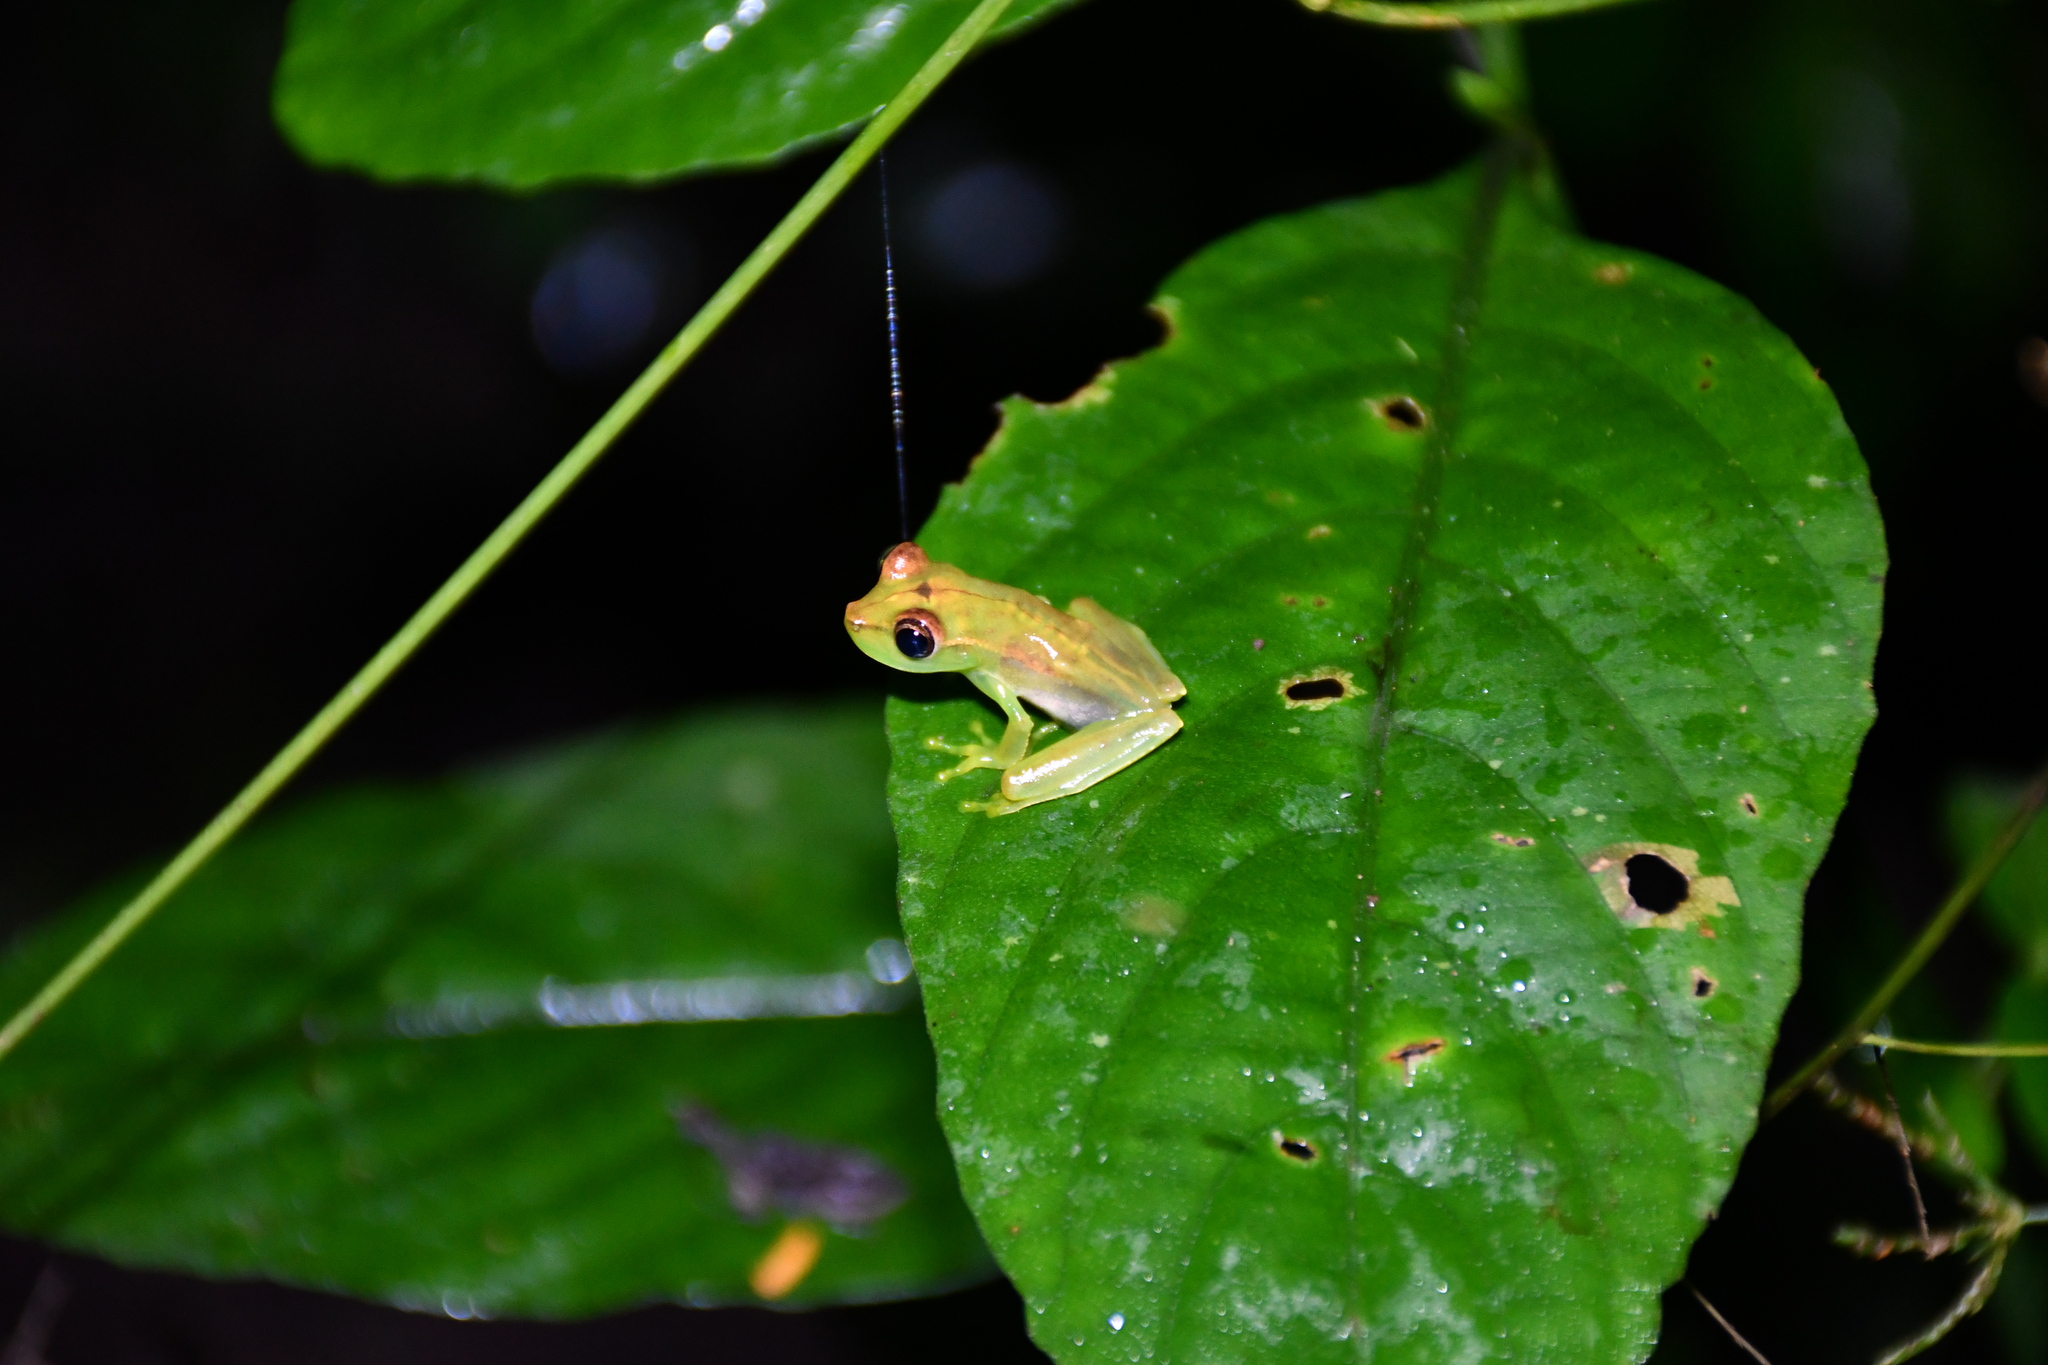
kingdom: Animalia
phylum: Chordata
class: Amphibia
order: Anura
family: Hylidae
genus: Boana
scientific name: Boana raniceps
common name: Chaco treefrog
